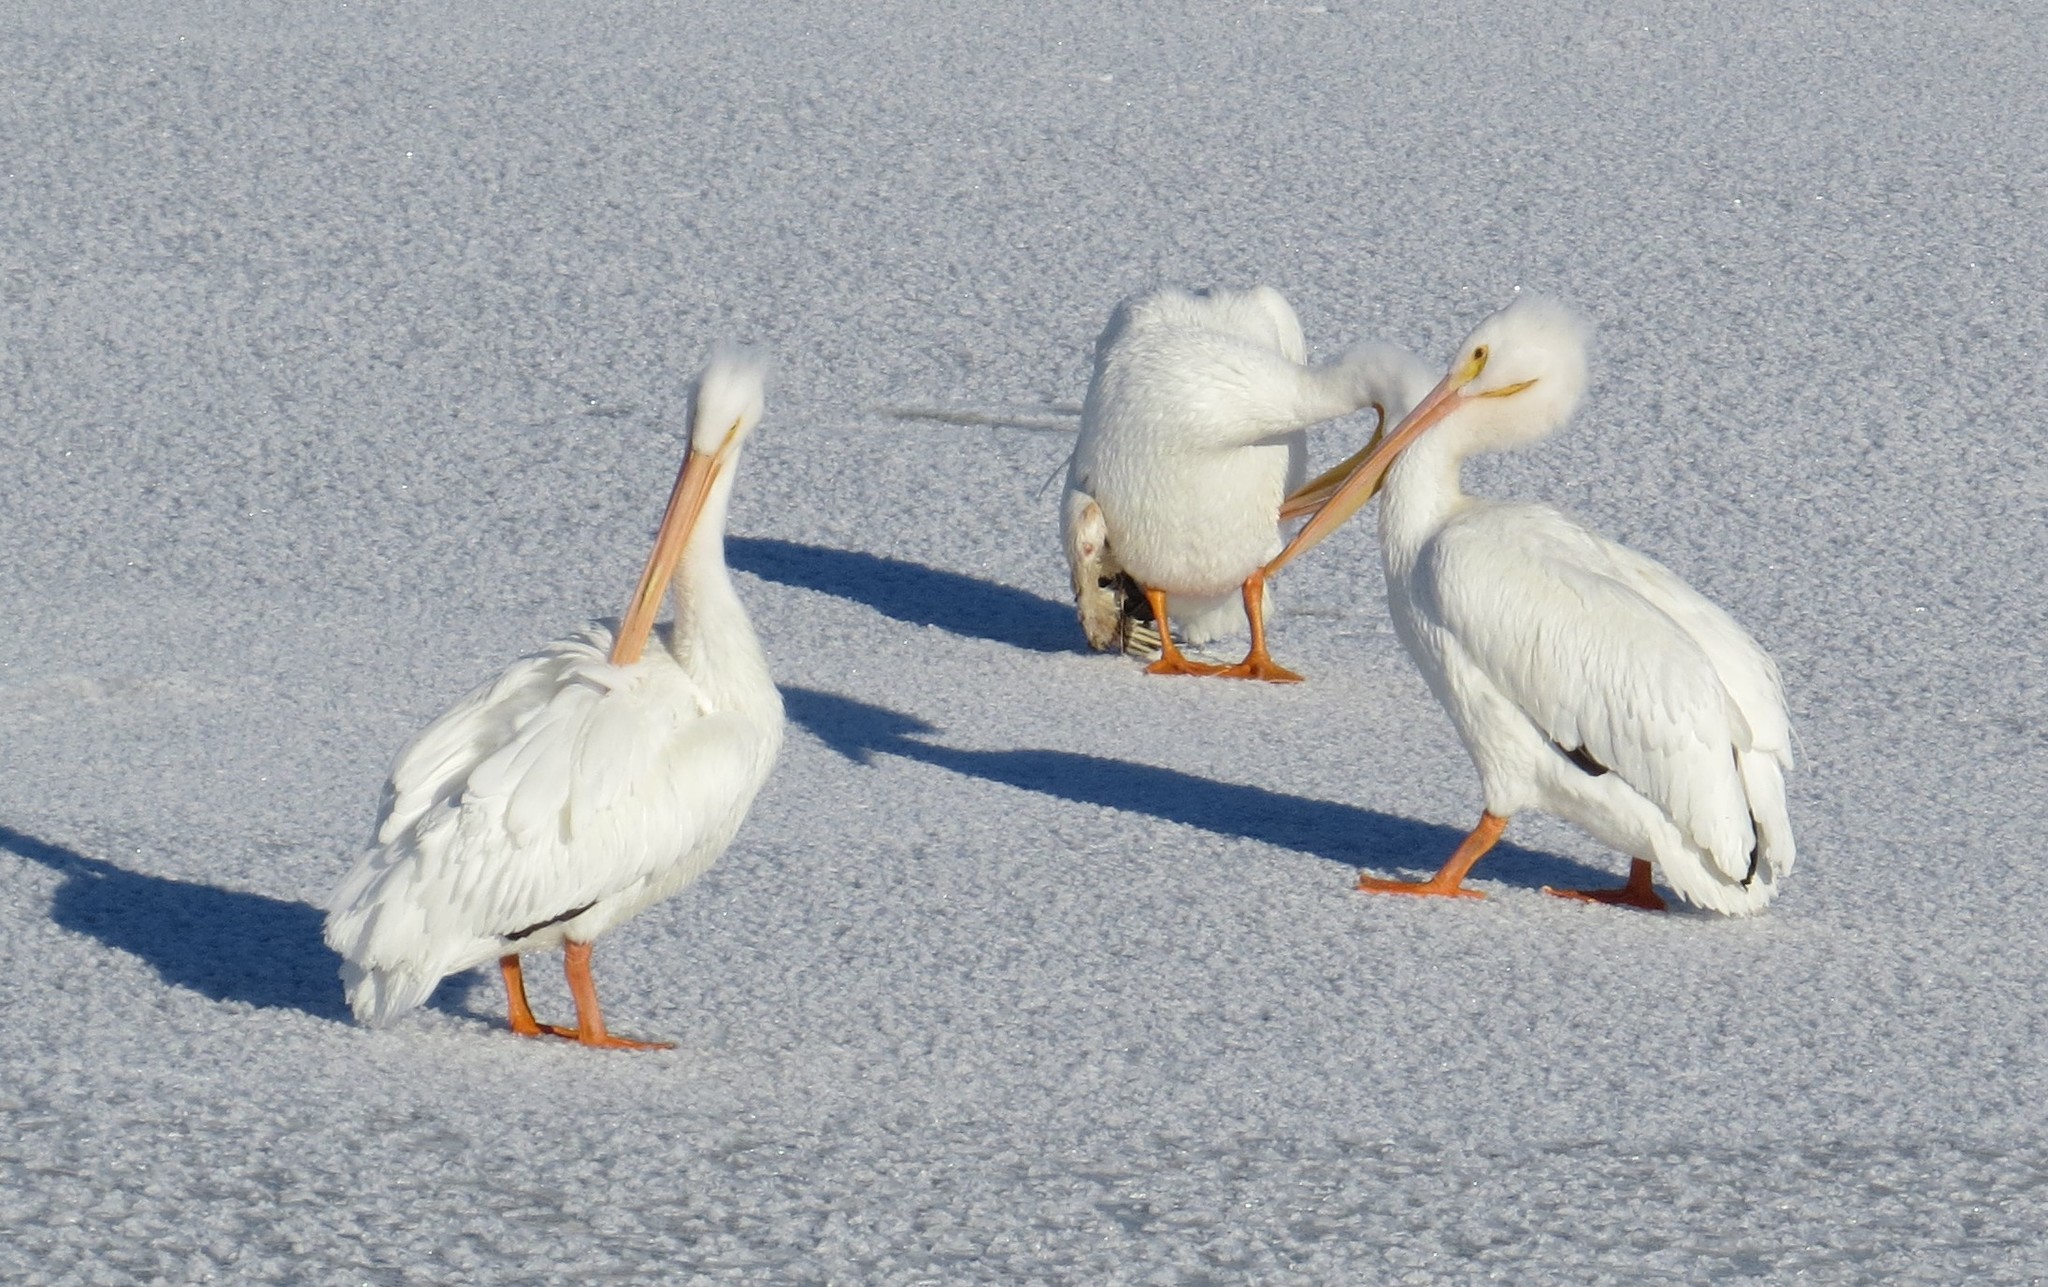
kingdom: Animalia
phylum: Chordata
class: Aves
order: Pelecaniformes
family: Pelecanidae
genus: Pelecanus
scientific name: Pelecanus erythrorhynchos
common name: American white pelican
